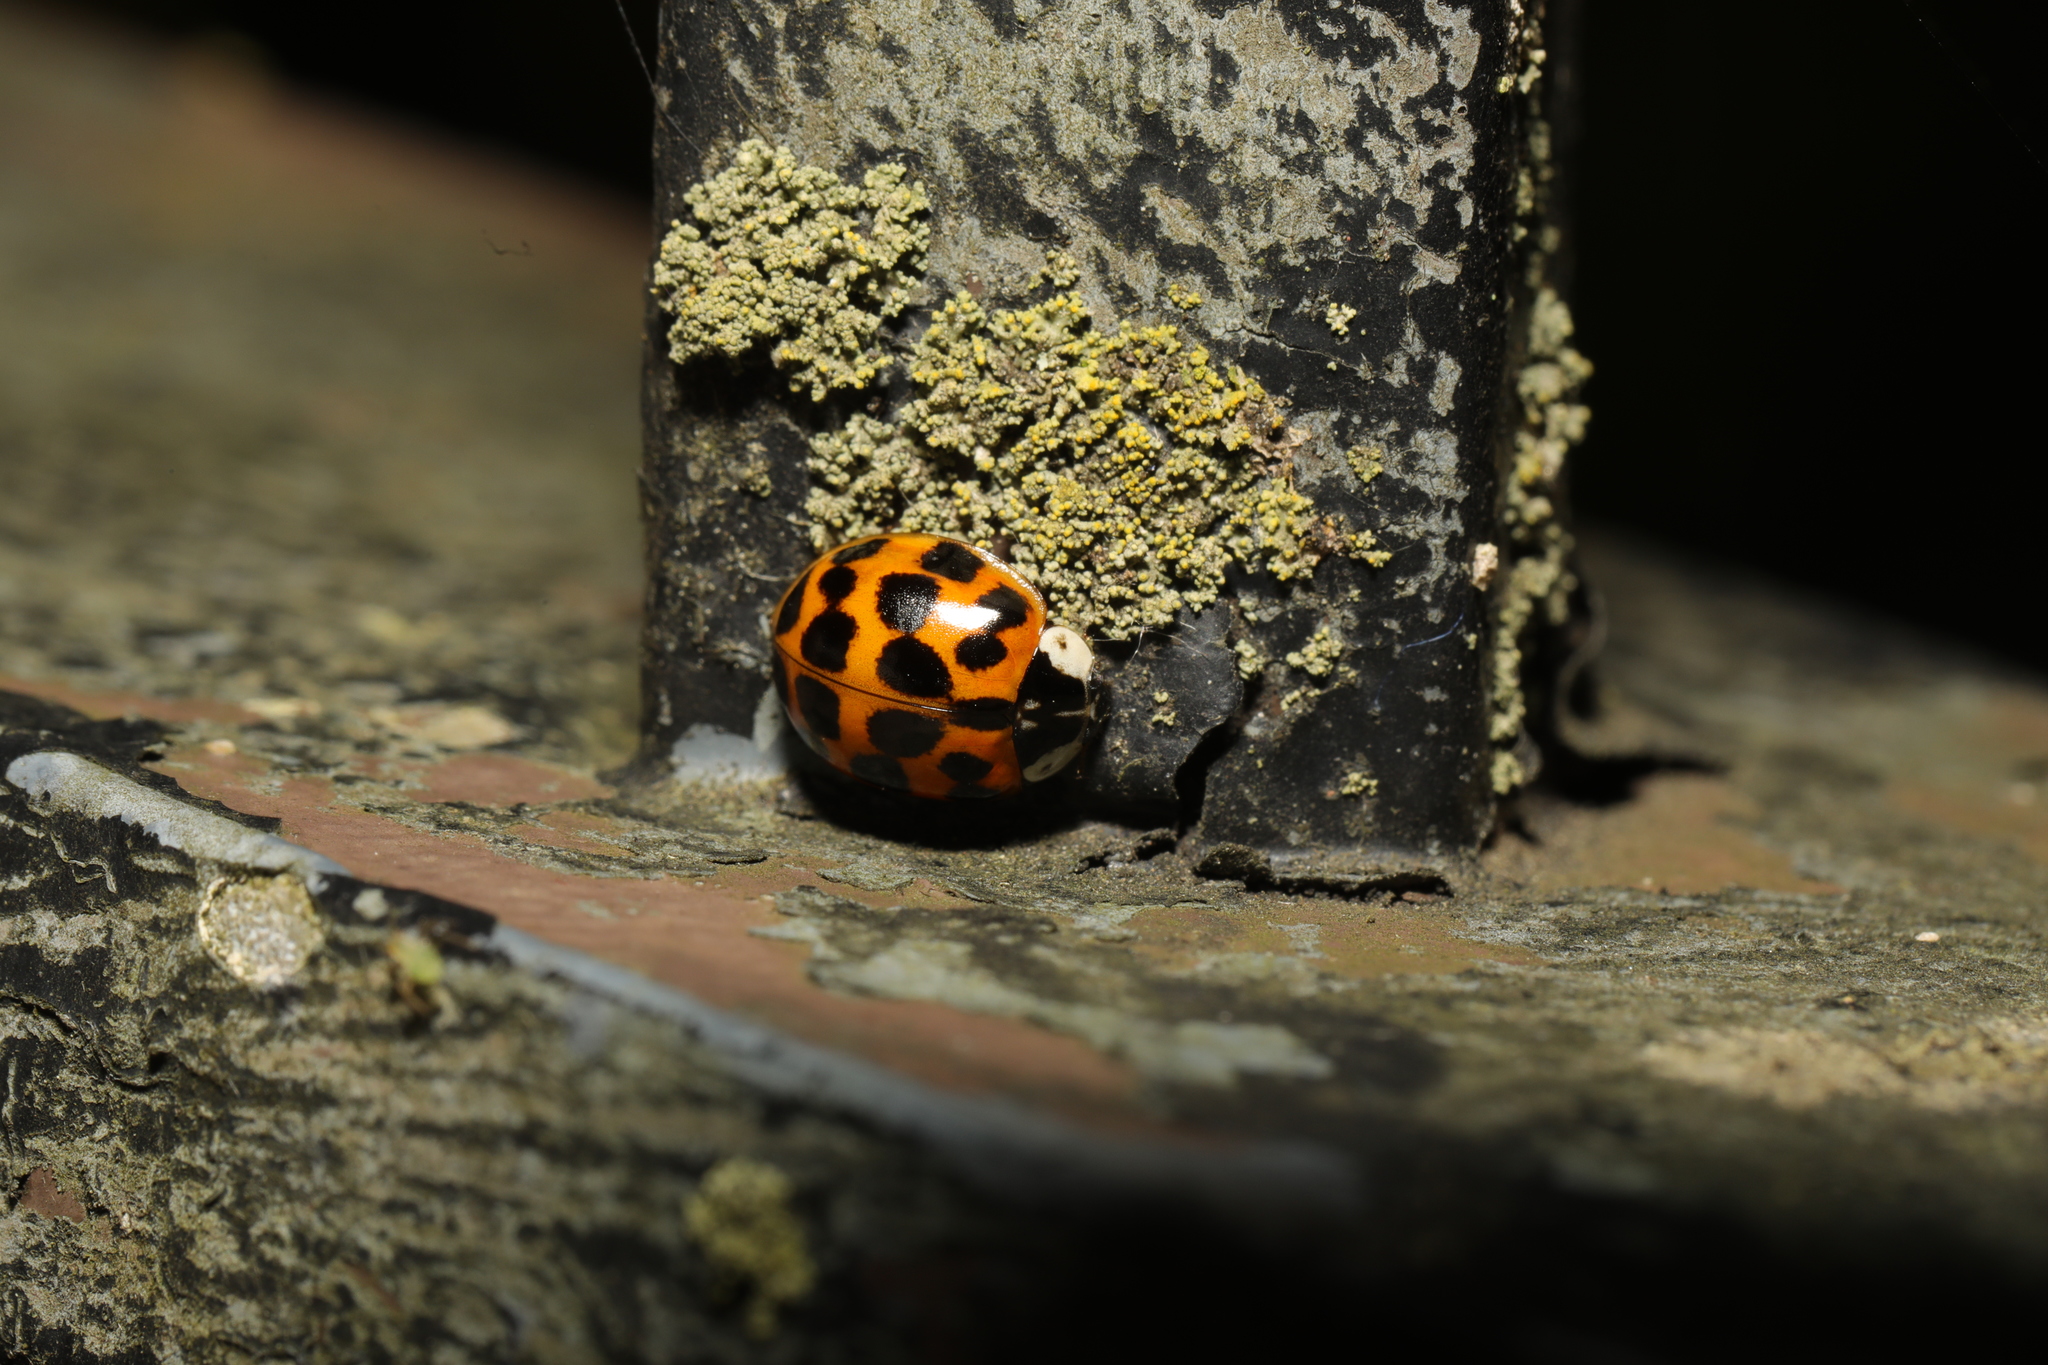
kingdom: Animalia
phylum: Arthropoda
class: Insecta
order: Coleoptera
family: Coccinellidae
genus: Harmonia
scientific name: Harmonia axyridis
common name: Harlequin ladybird
